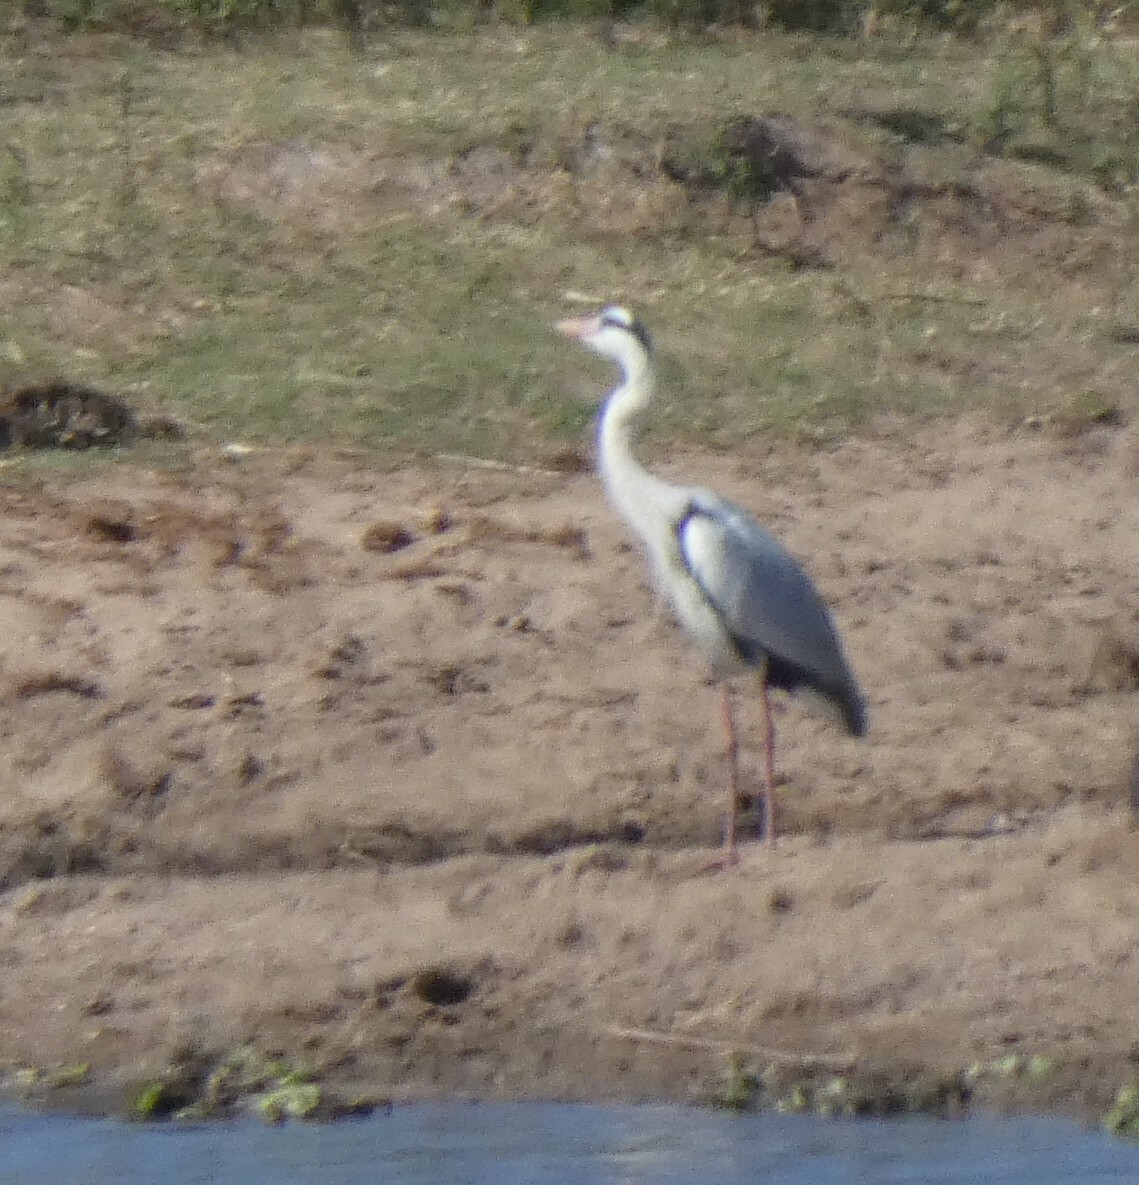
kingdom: Animalia
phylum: Chordata
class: Aves
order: Pelecaniformes
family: Ardeidae
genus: Ardea
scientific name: Ardea cinerea
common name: Grey heron
